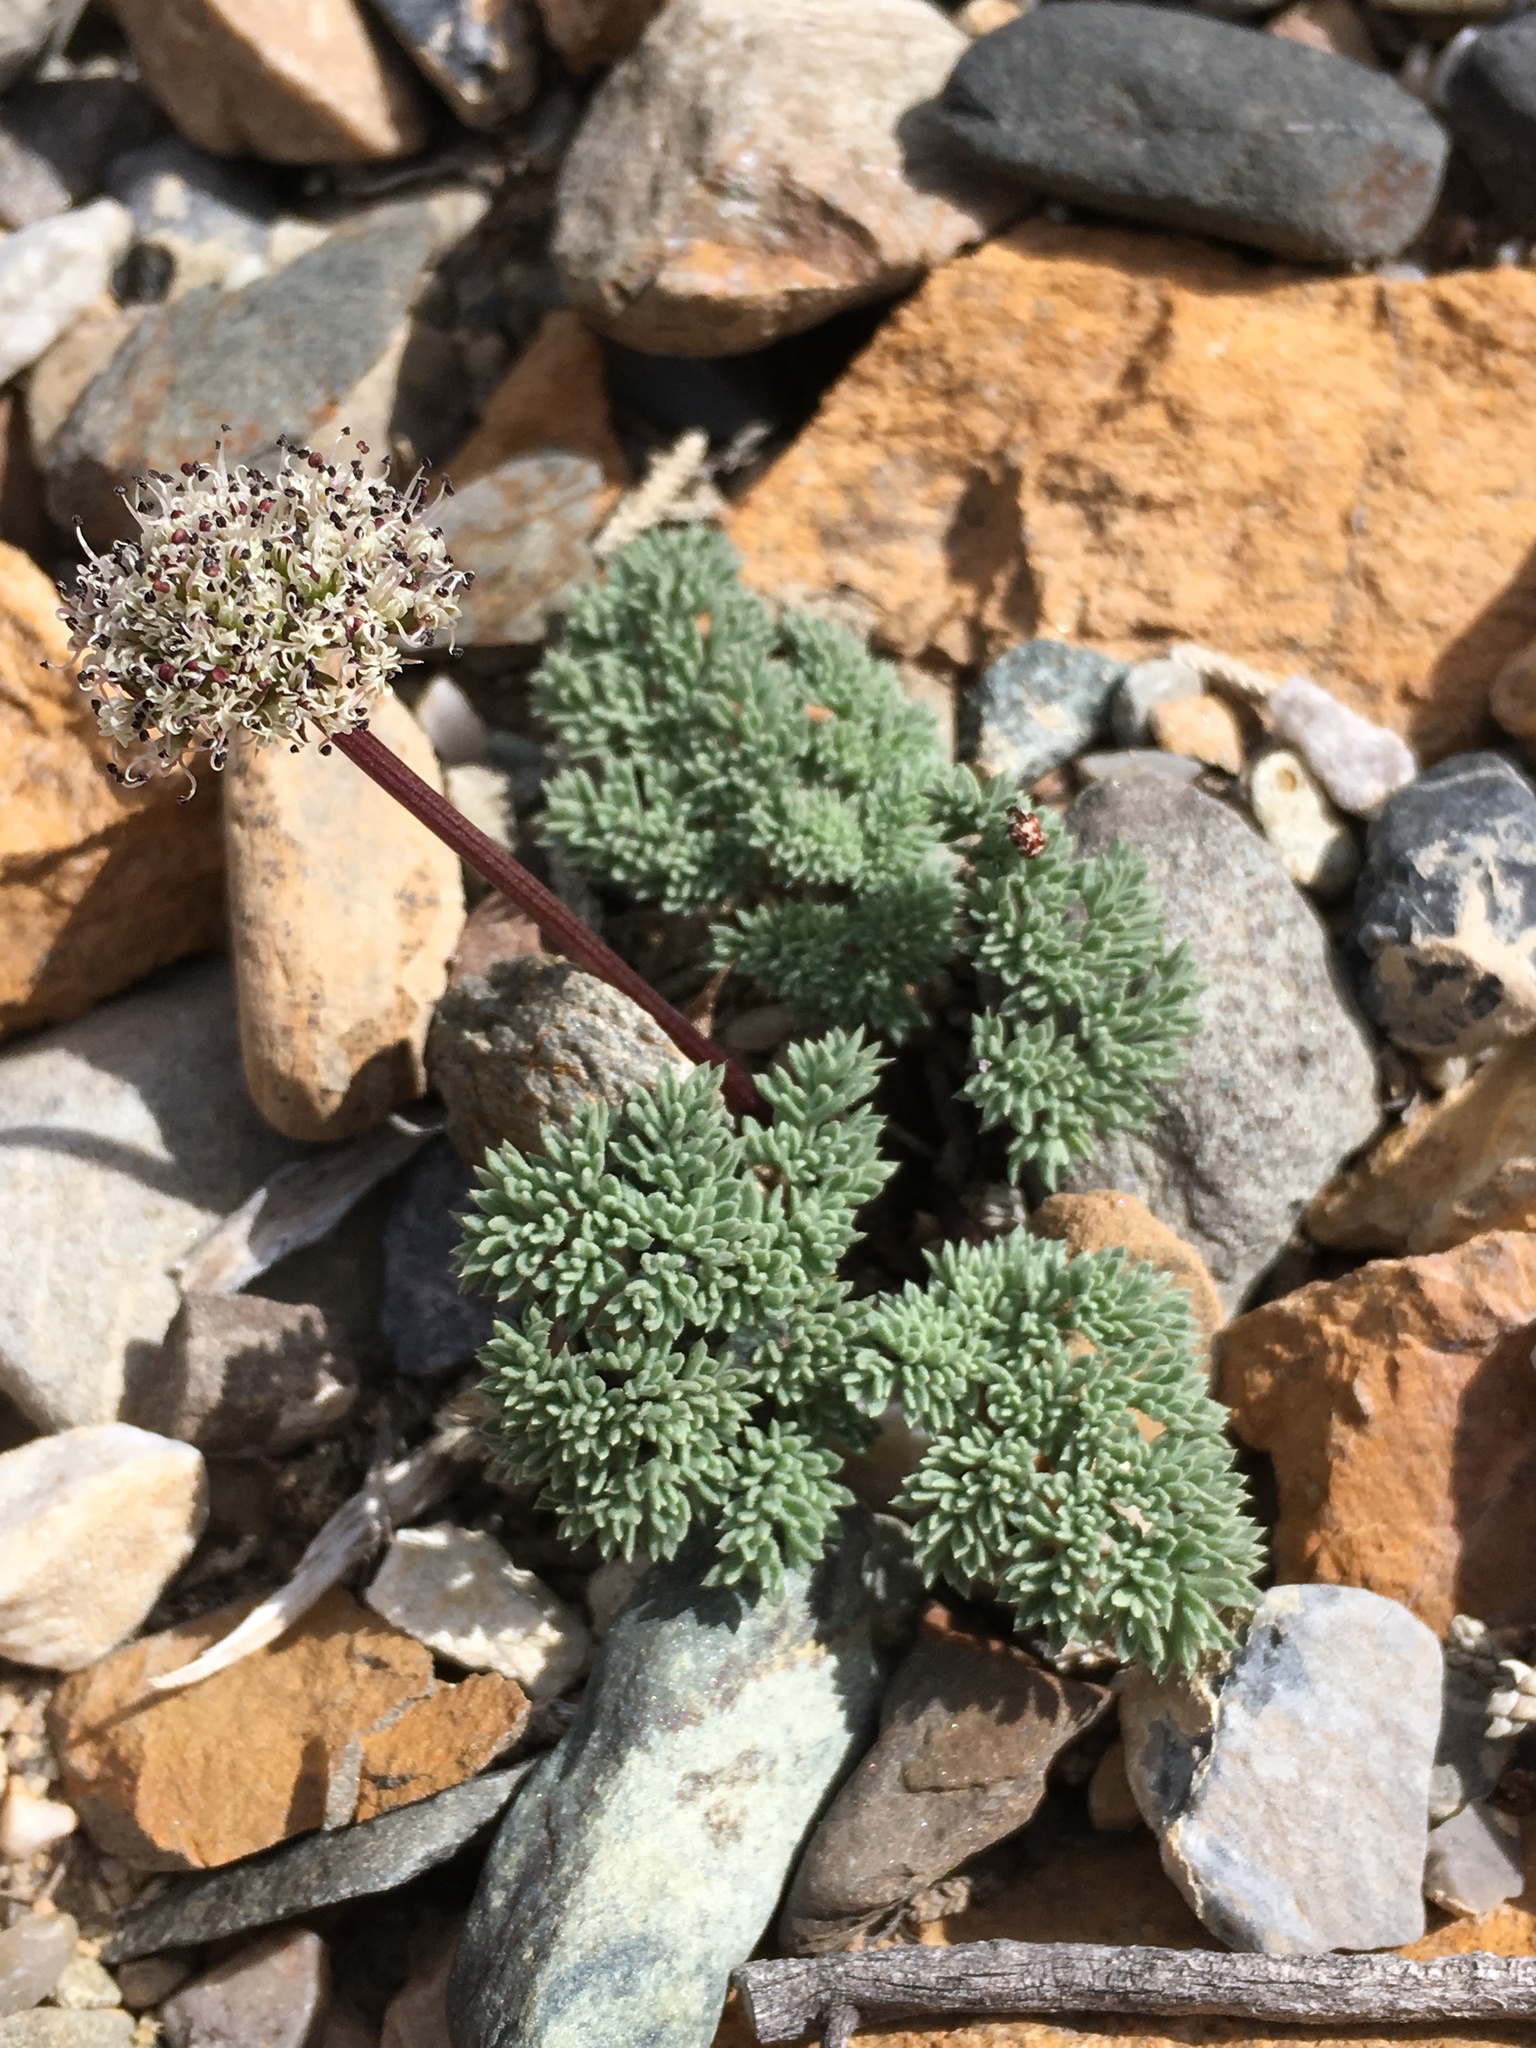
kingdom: Plantae
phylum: Tracheophyta
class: Magnoliopsida
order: Apiales
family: Apiaceae
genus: Aulospermum
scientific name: Aulospermum aboriginum
